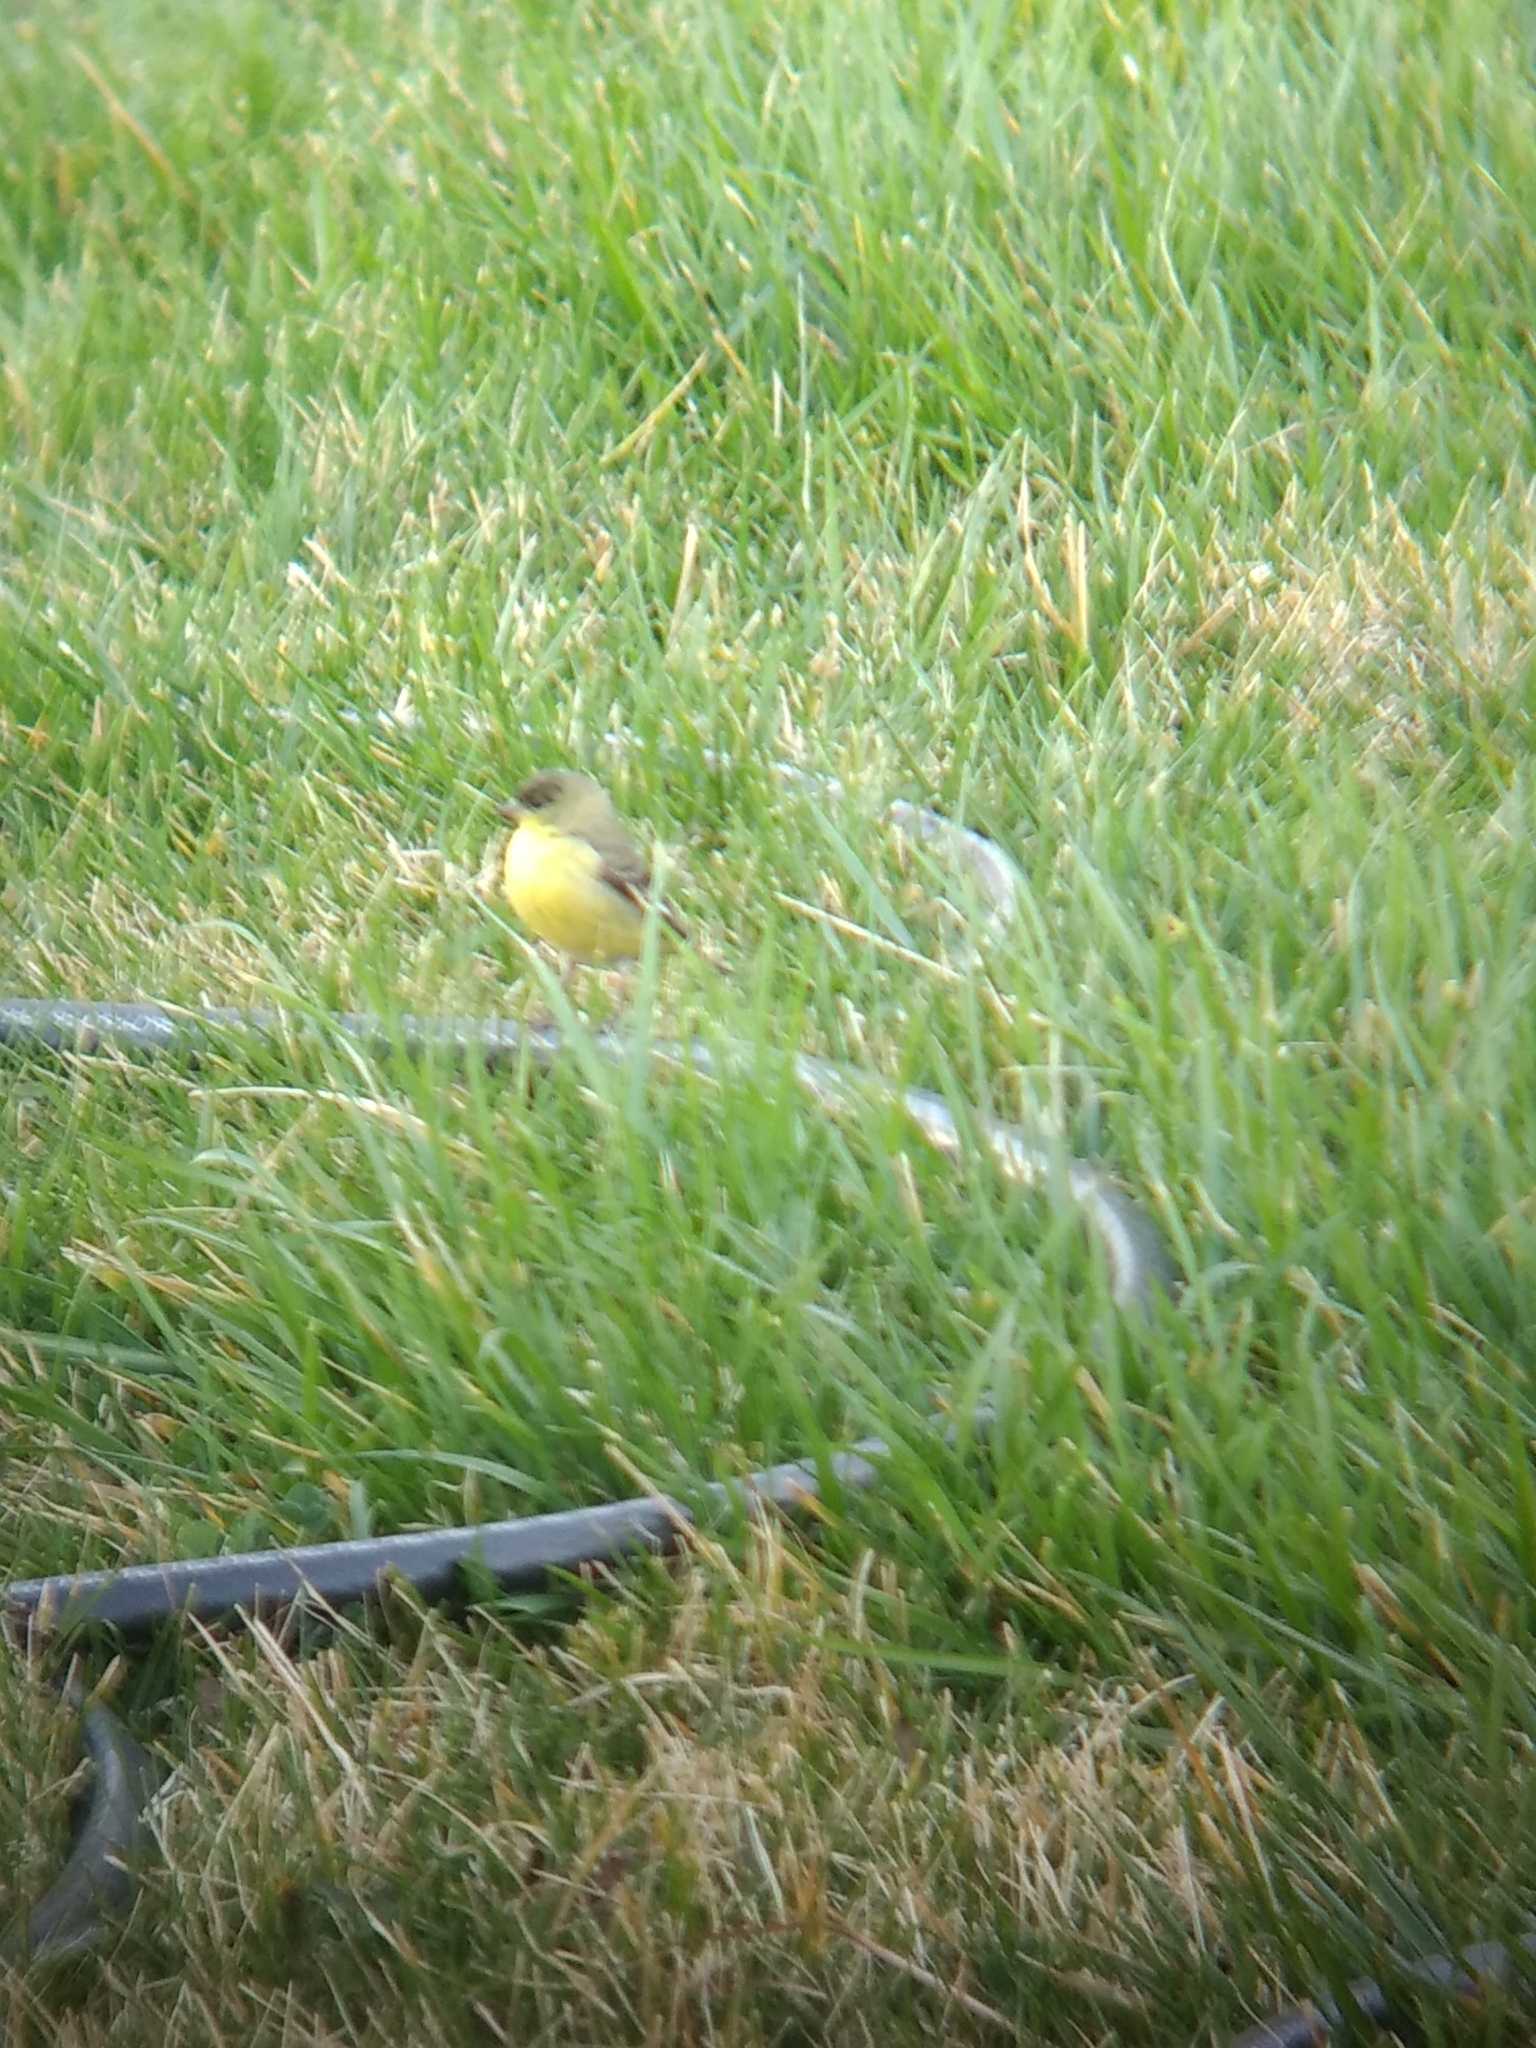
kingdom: Animalia
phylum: Chordata
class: Aves
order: Passeriformes
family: Fringillidae
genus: Spinus
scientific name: Spinus psaltria
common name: Lesser goldfinch
